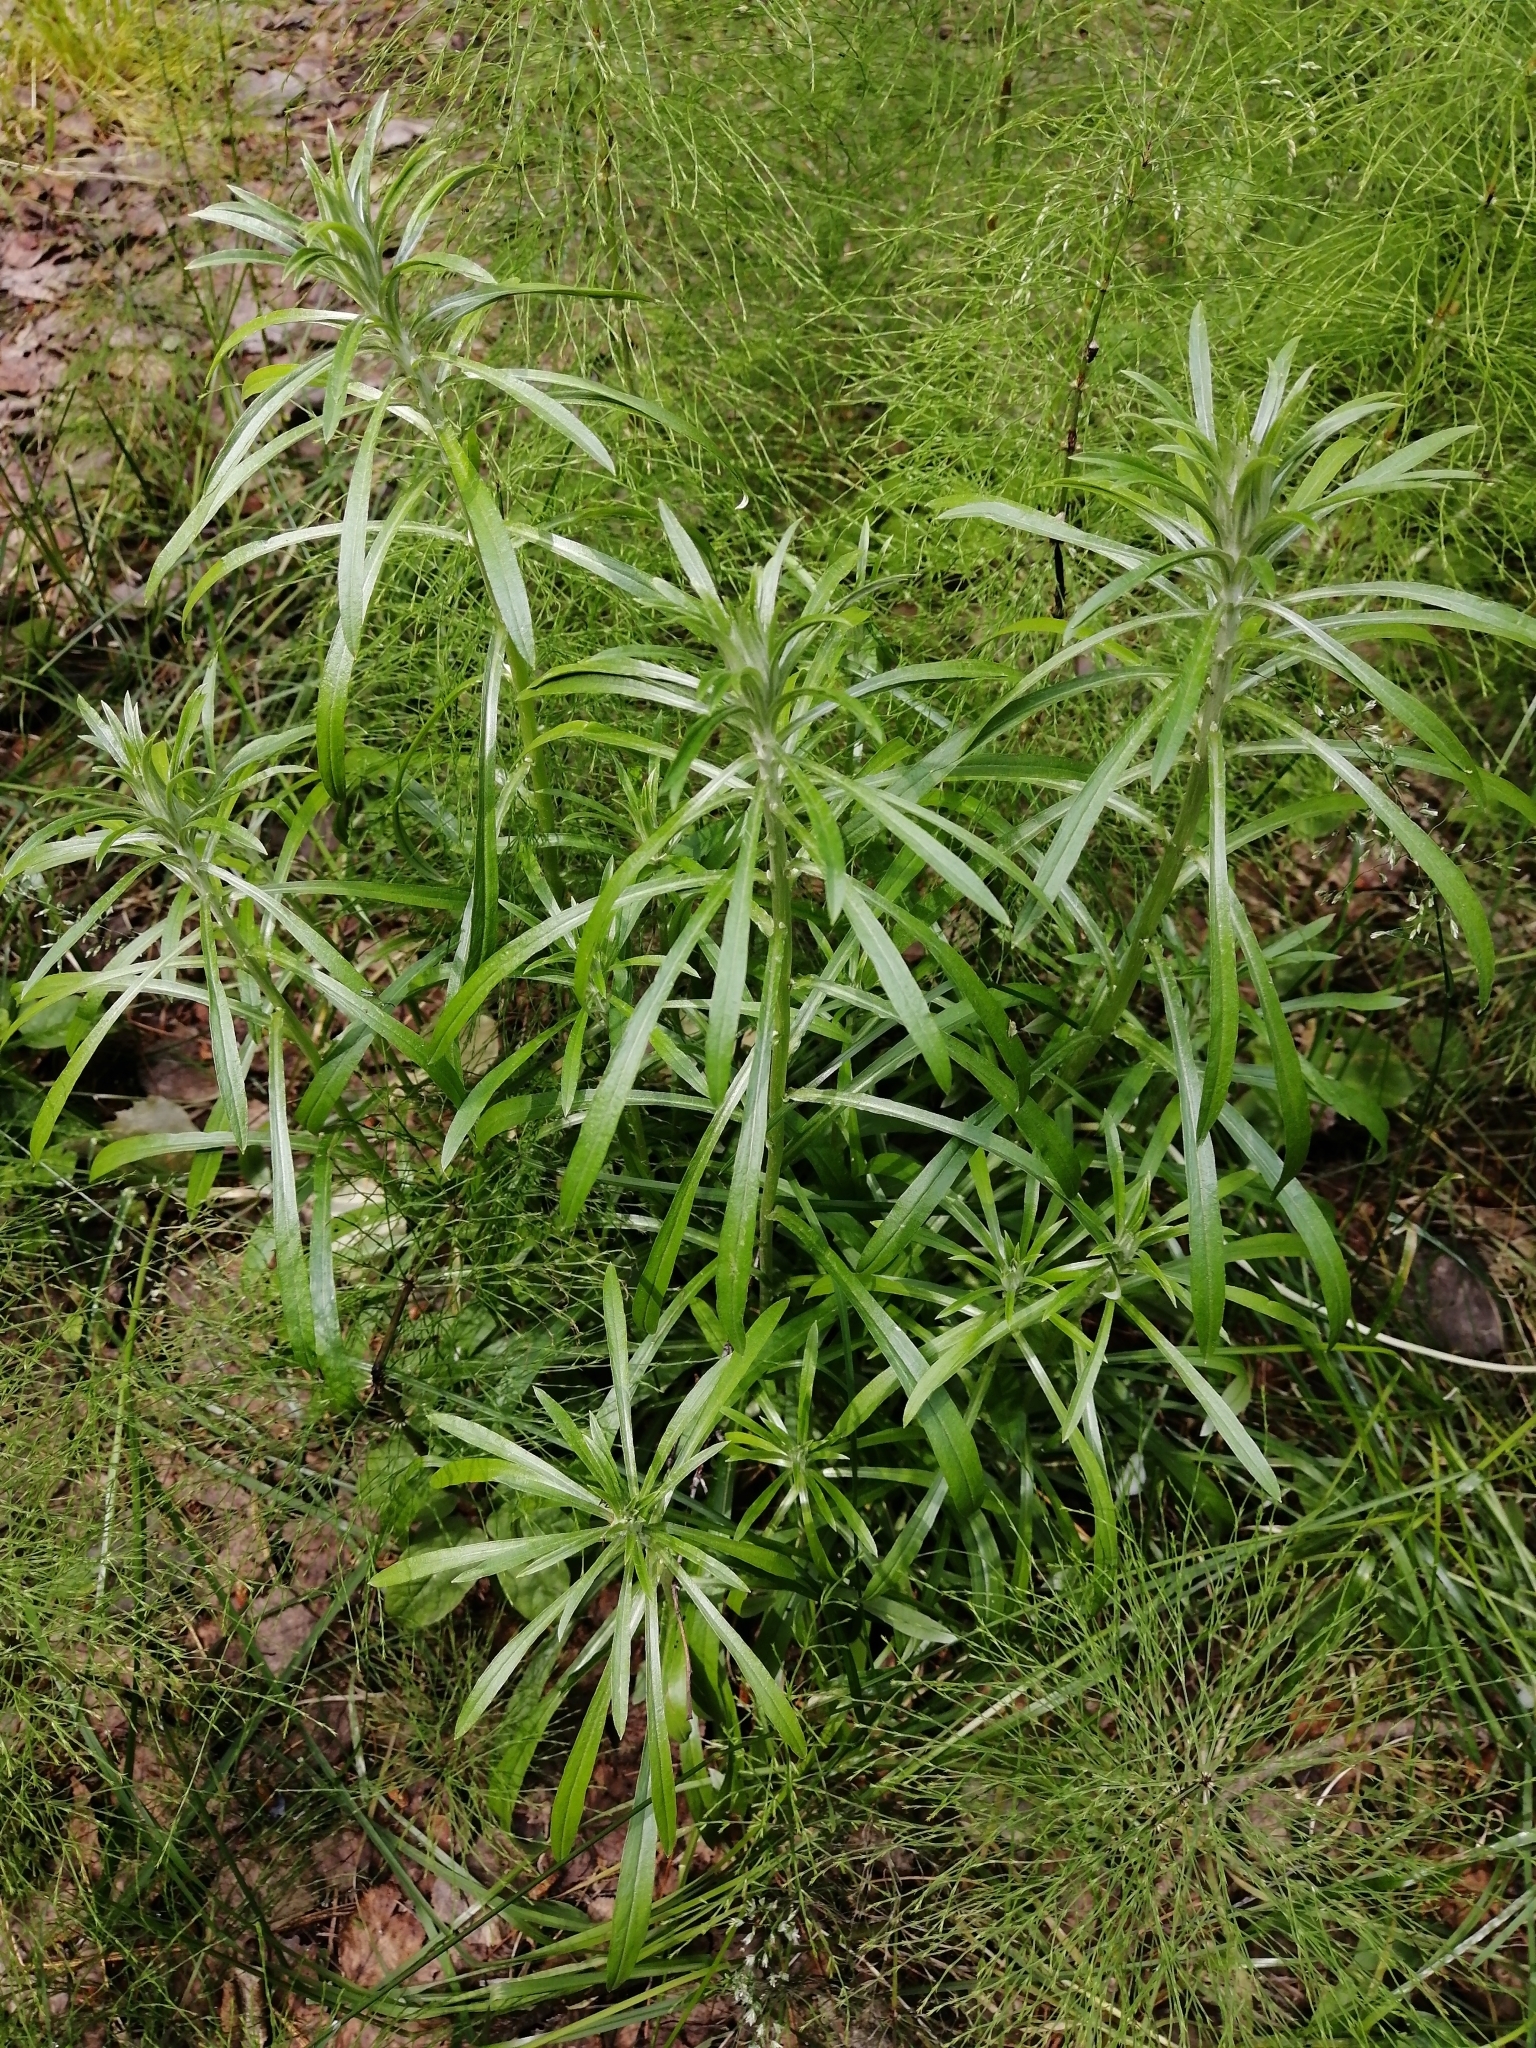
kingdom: Plantae
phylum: Tracheophyta
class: Magnoliopsida
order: Asterales
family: Asteraceae
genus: Omalotheca
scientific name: Omalotheca sylvatica
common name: Heath cudweed
